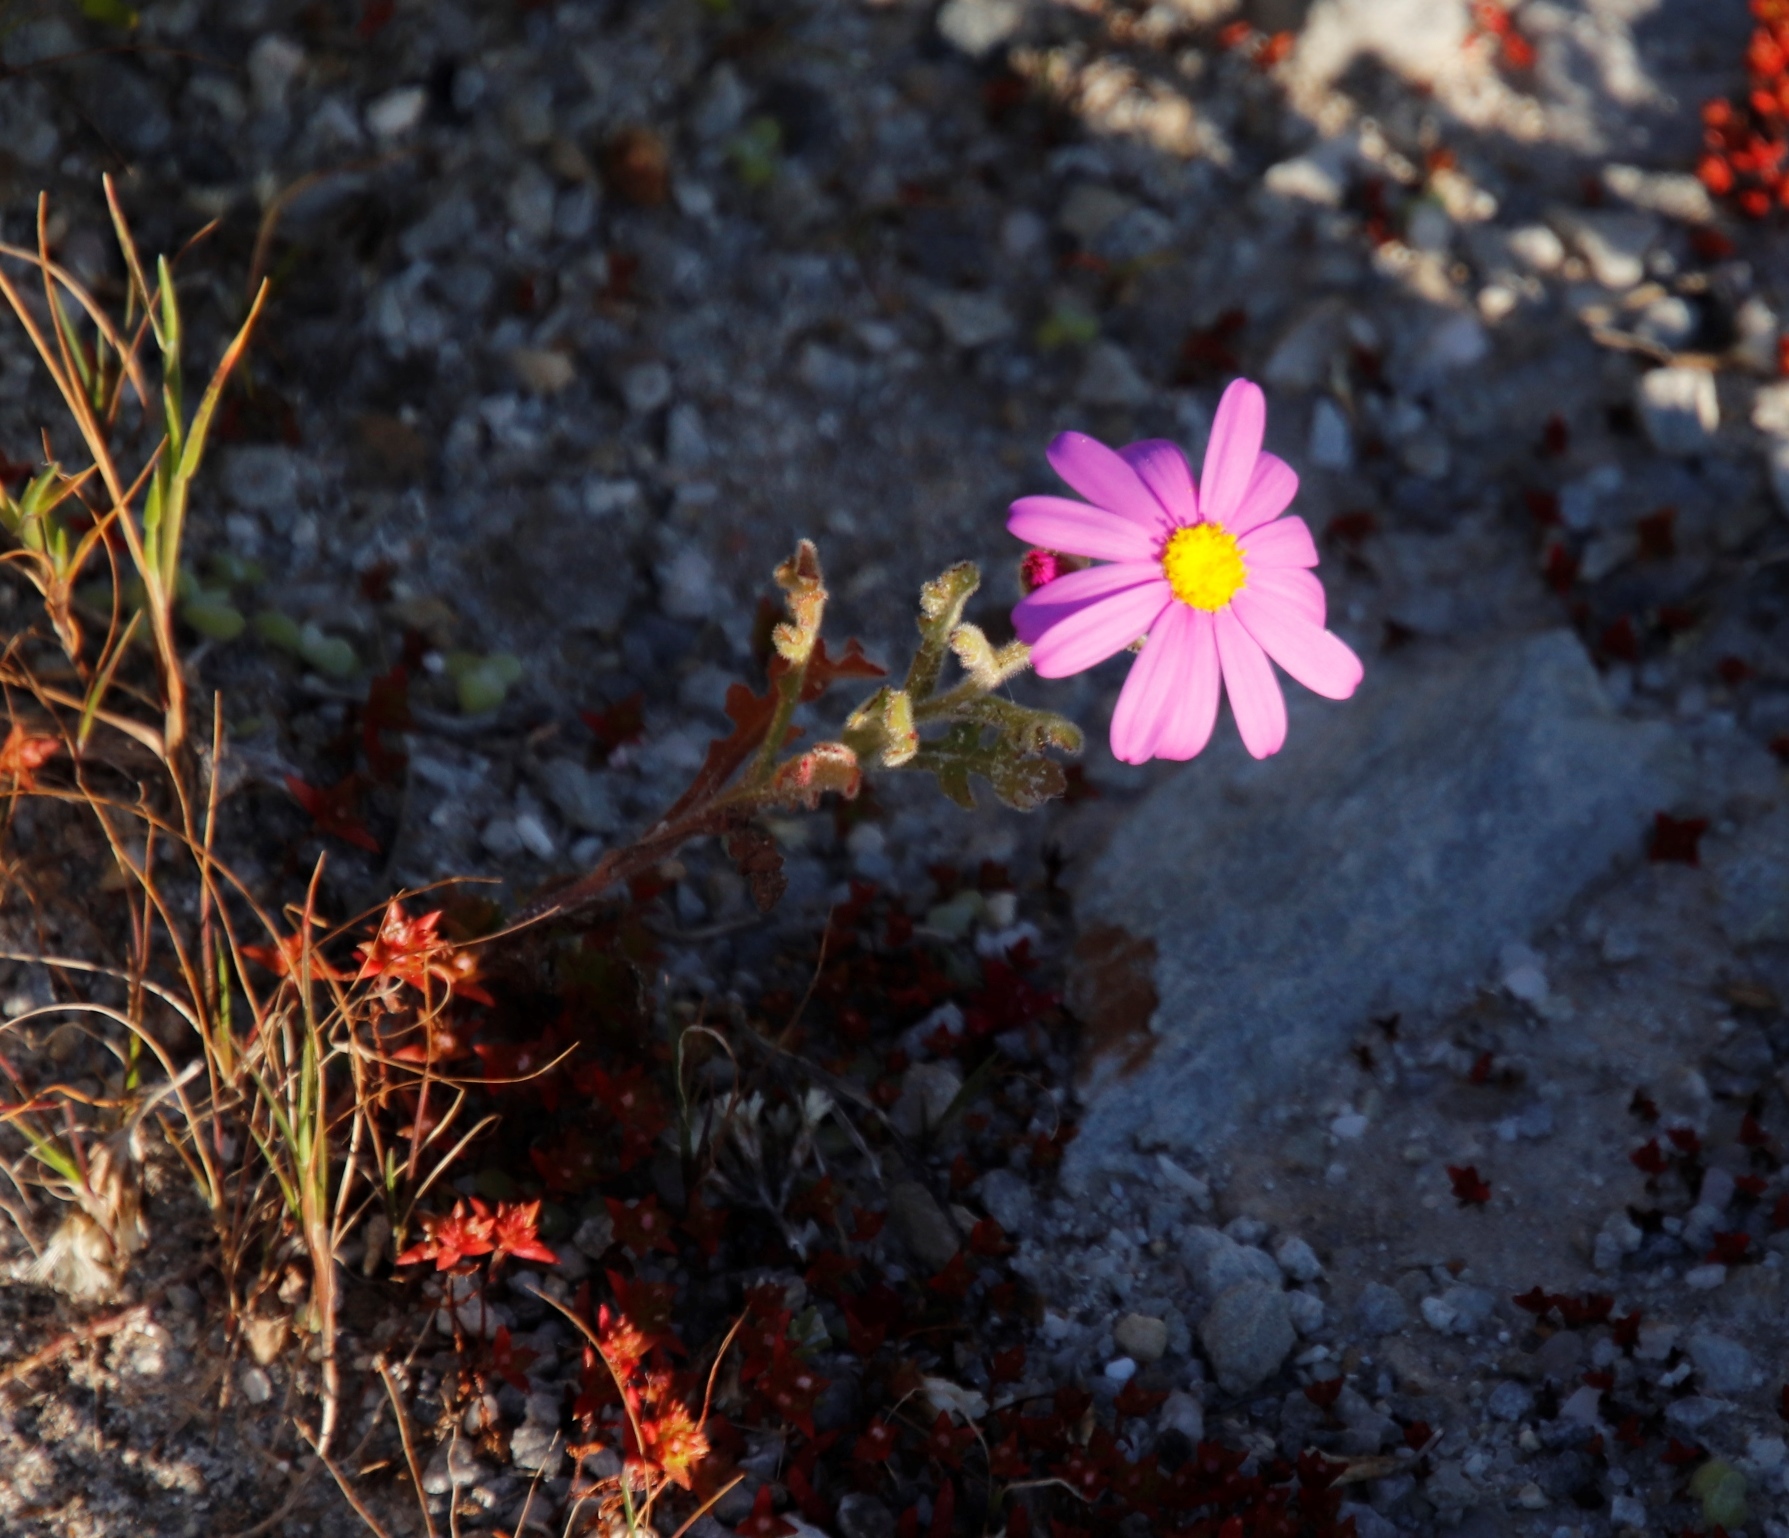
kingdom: Plantae
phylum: Tracheophyta
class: Magnoliopsida
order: Asterales
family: Asteraceae
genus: Senecio
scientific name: Senecio elegans
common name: Purple groundsel
